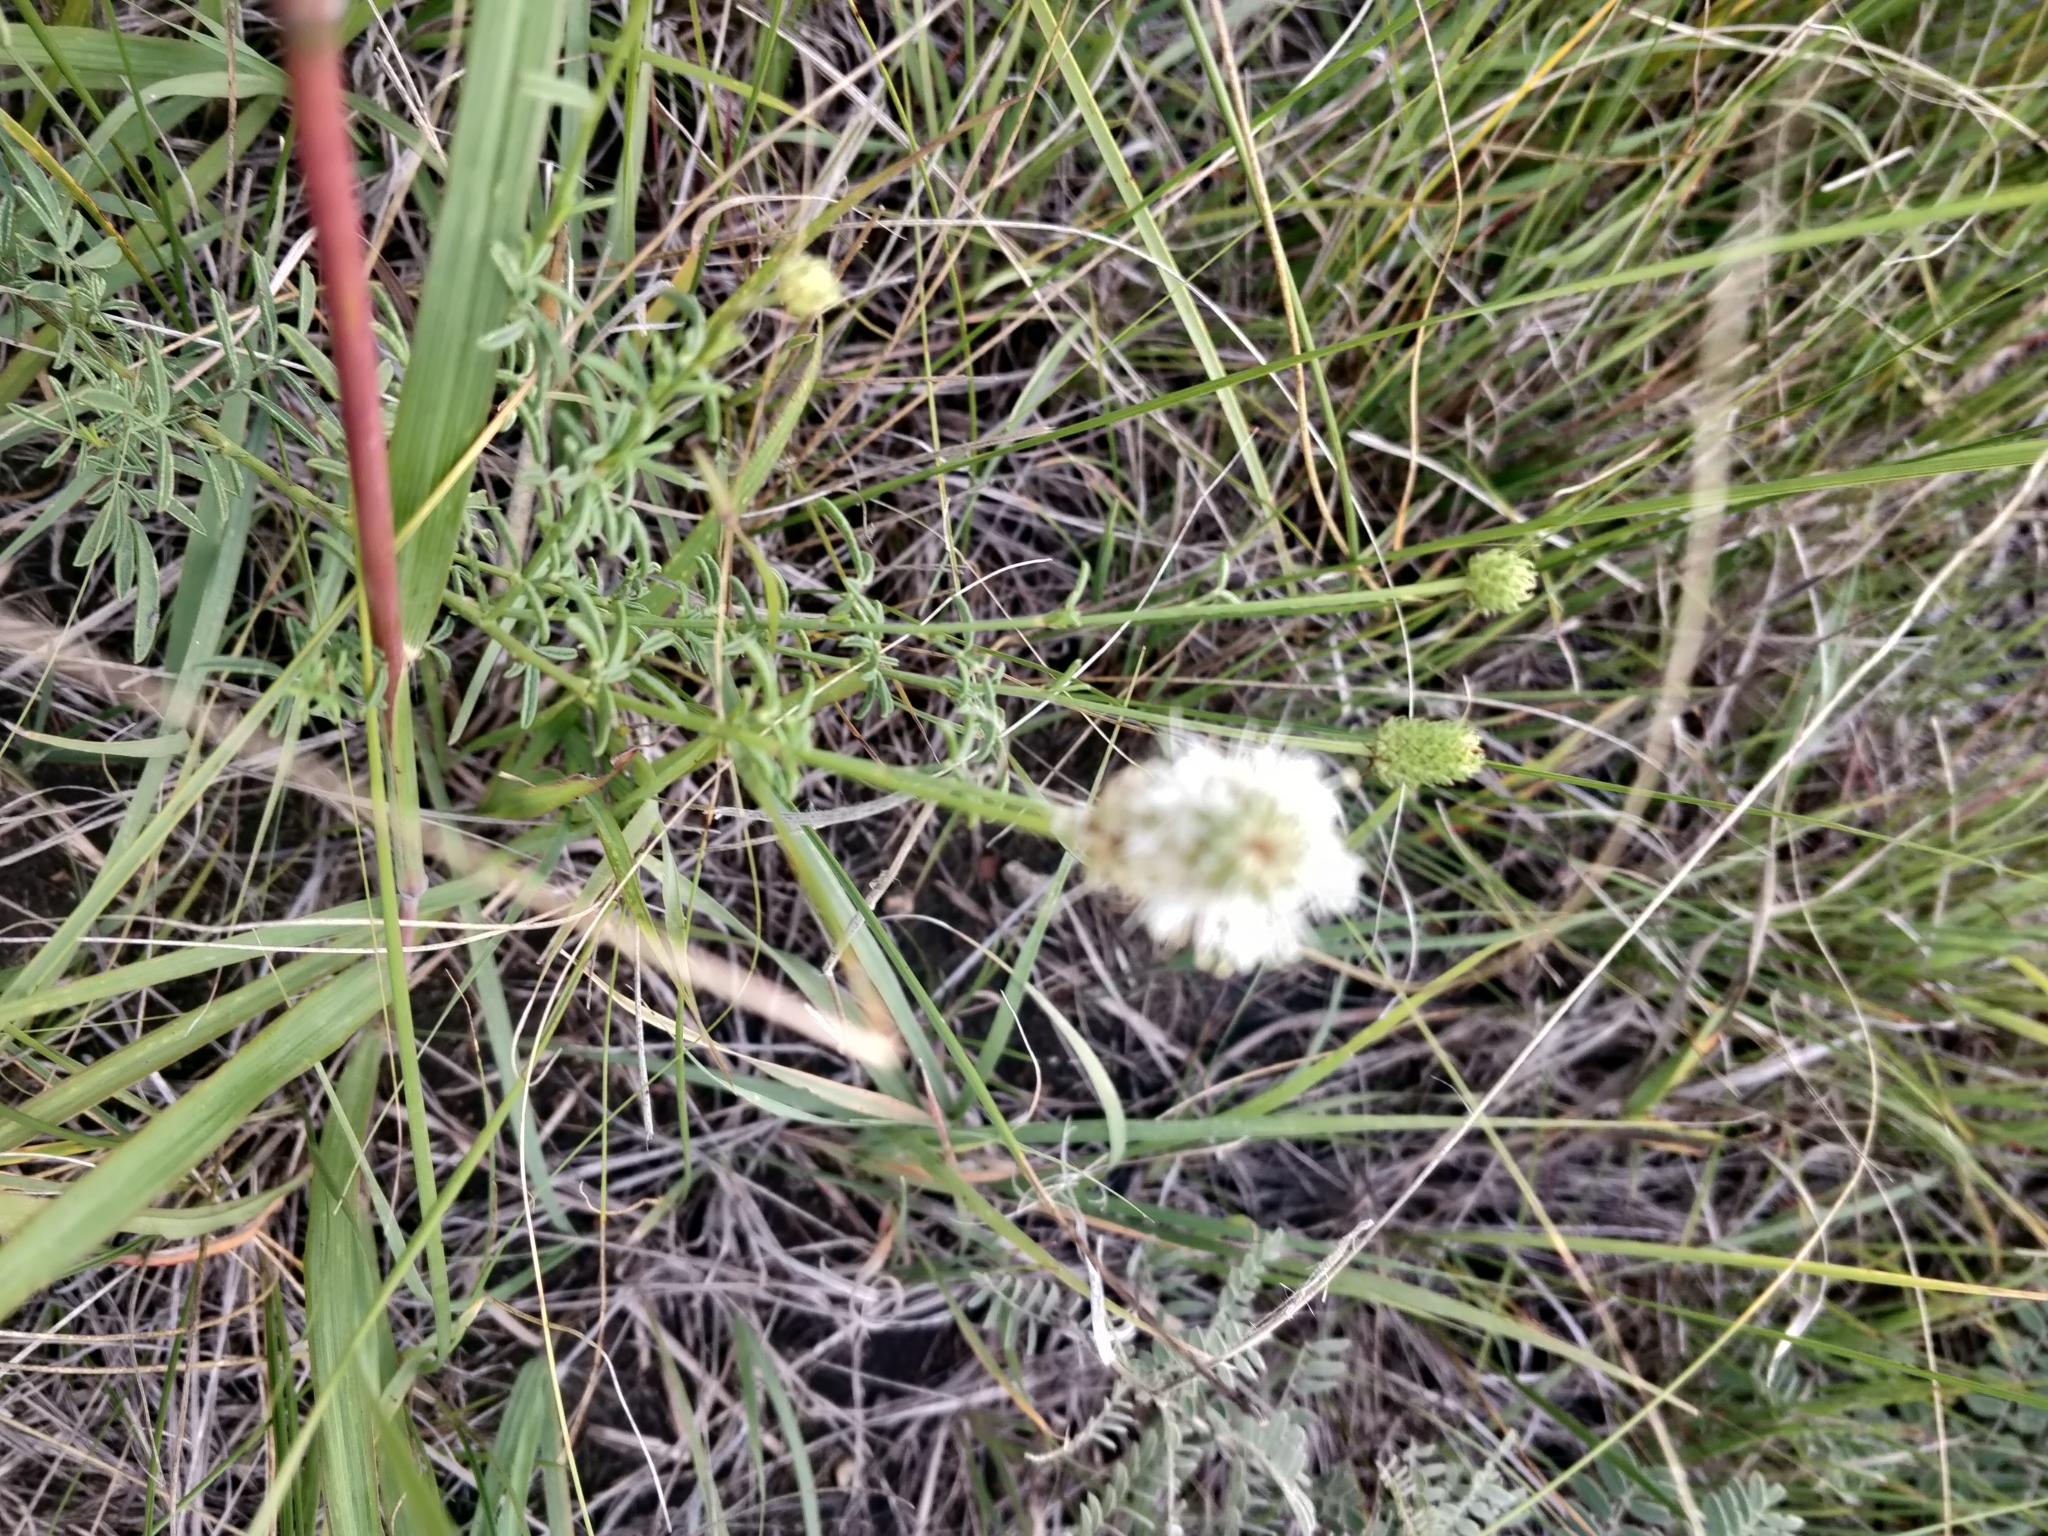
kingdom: Plantae
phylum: Tracheophyta
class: Magnoliopsida
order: Fabales
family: Fabaceae
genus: Dalea
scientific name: Dalea candida
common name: White prairie-clover
